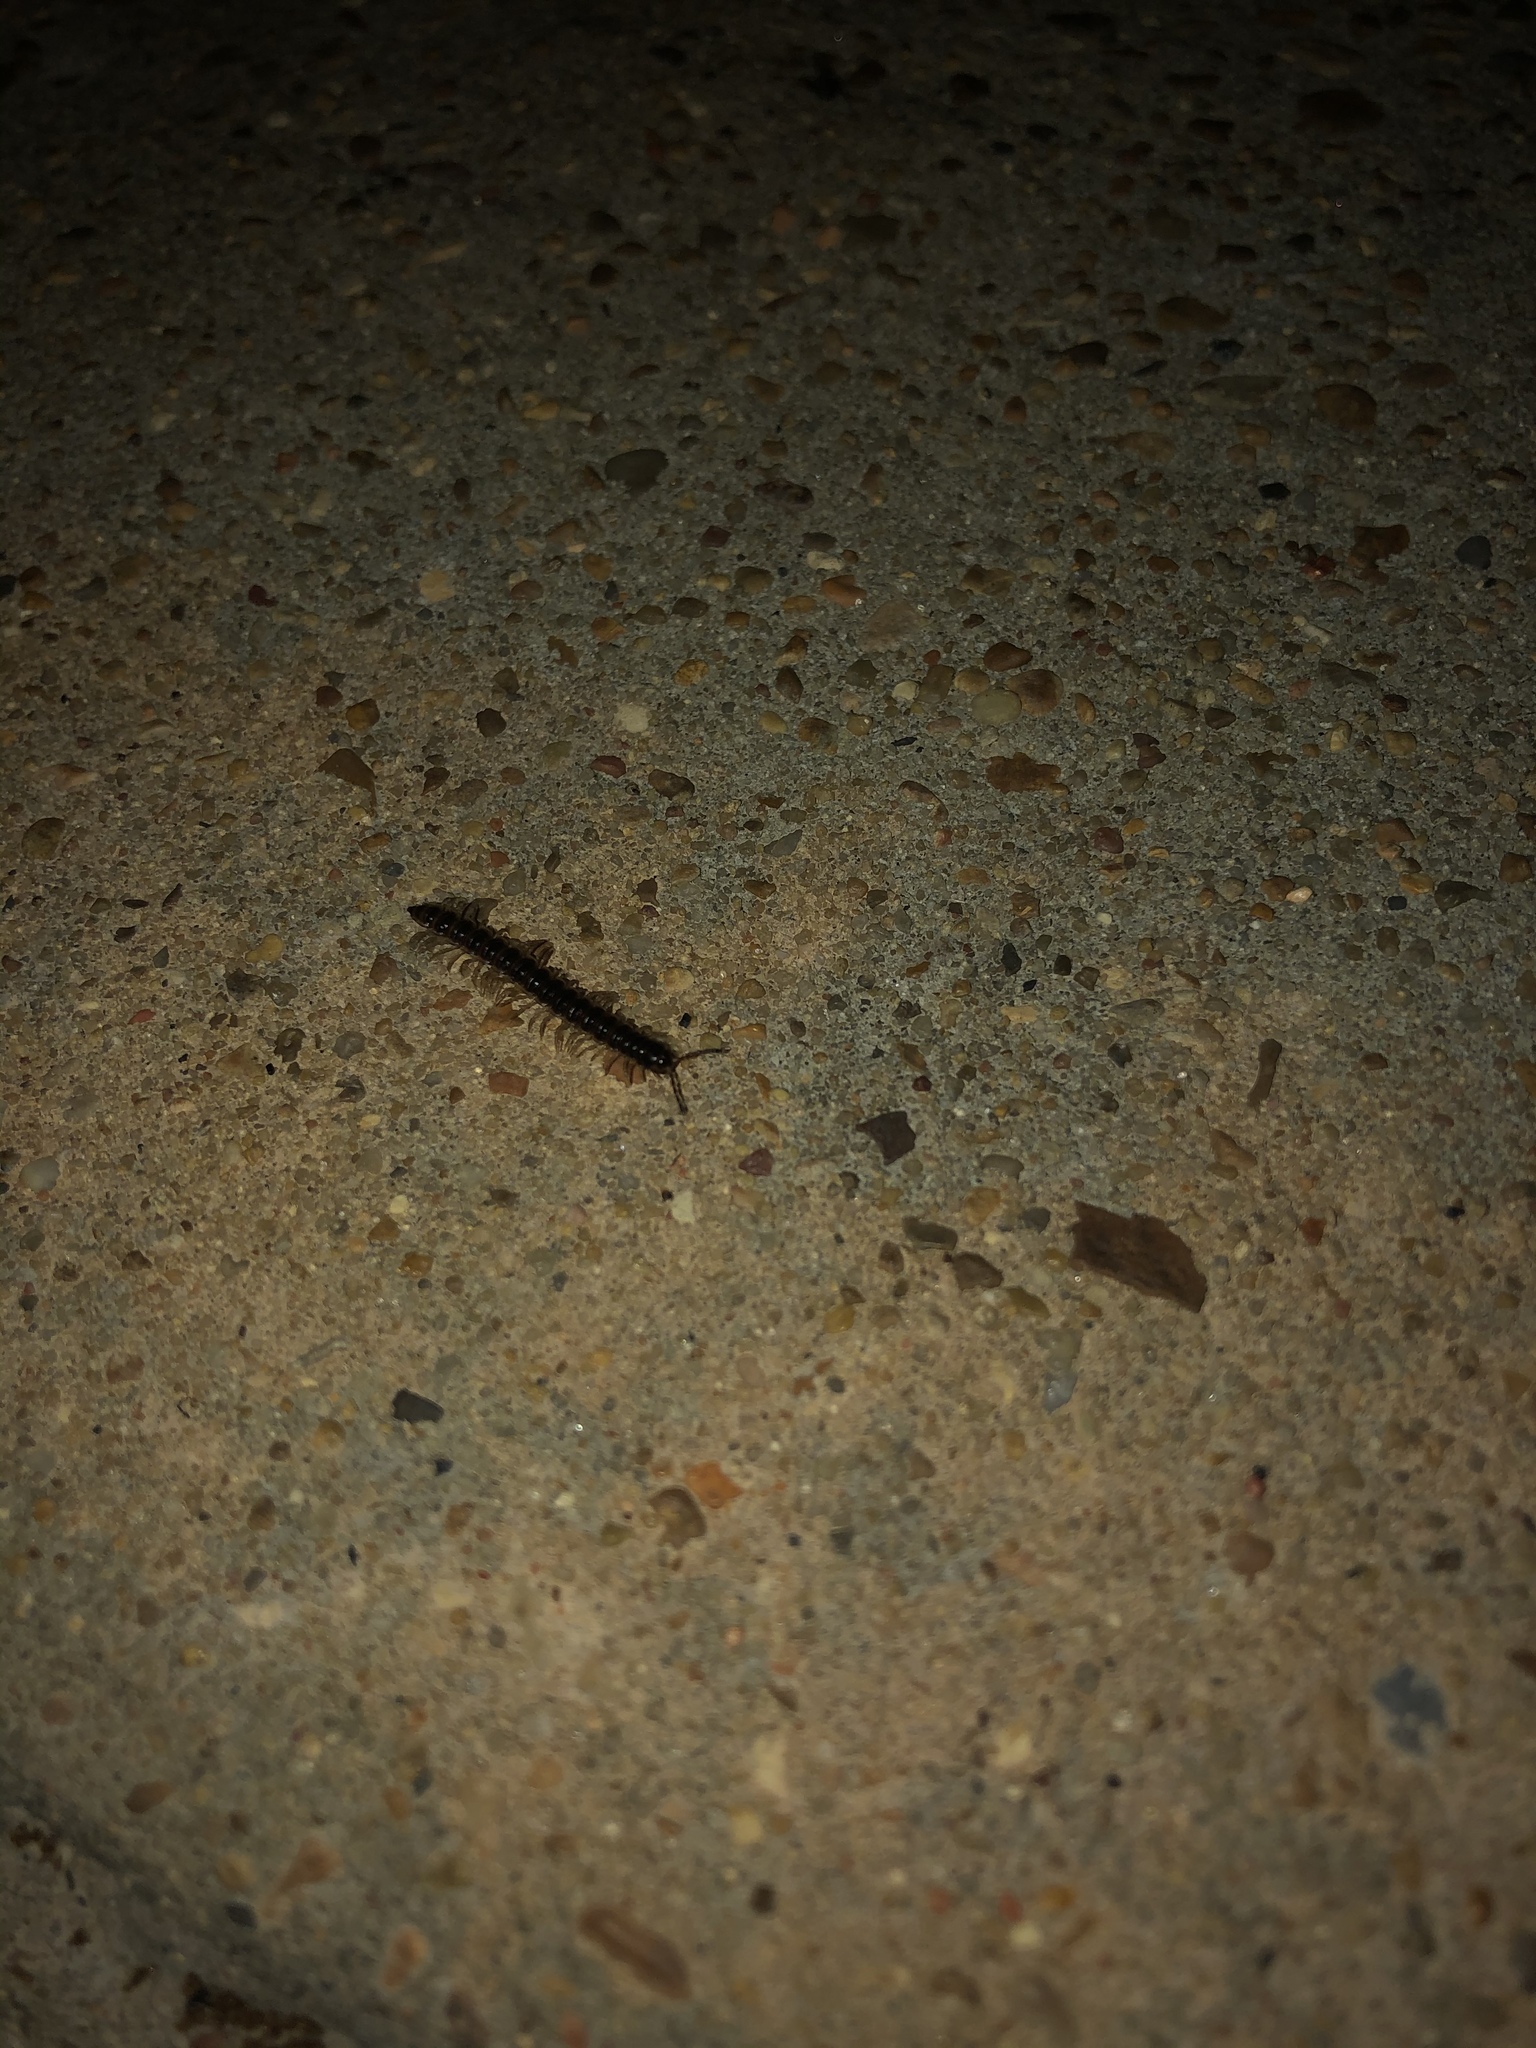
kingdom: Animalia
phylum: Arthropoda
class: Diplopoda
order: Polydesmida
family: Paradoxosomatidae
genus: Oxidus
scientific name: Oxidus gracilis
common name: Greenhouse millipede
